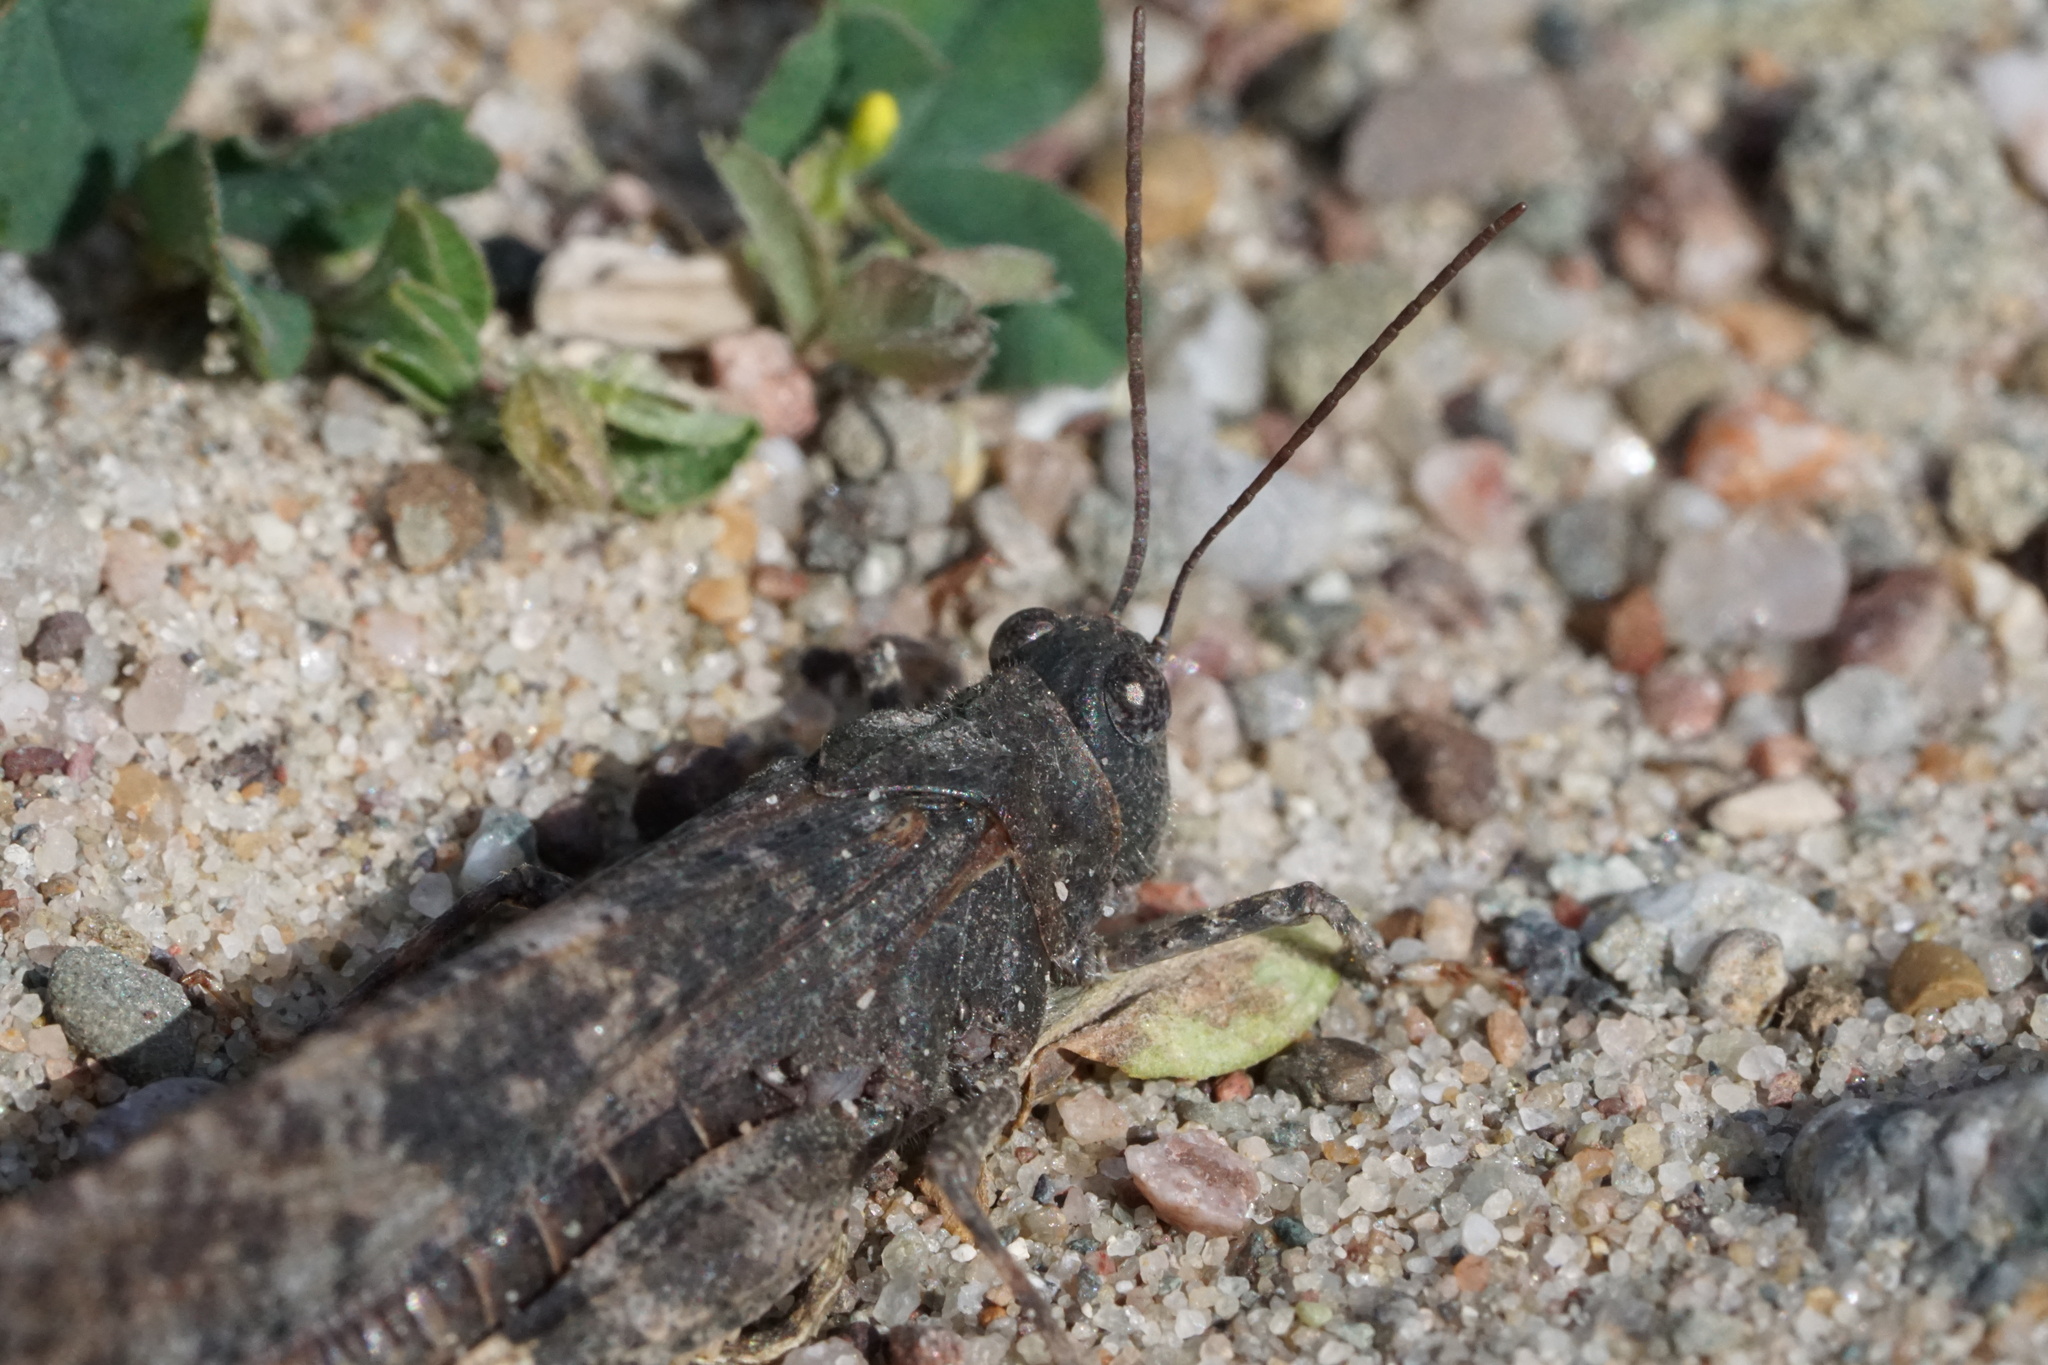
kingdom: Animalia
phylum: Arthropoda
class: Insecta
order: Orthoptera
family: Acrididae
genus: Trimerotropis
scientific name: Trimerotropis verruculata
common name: Crackling forest grasshopper
